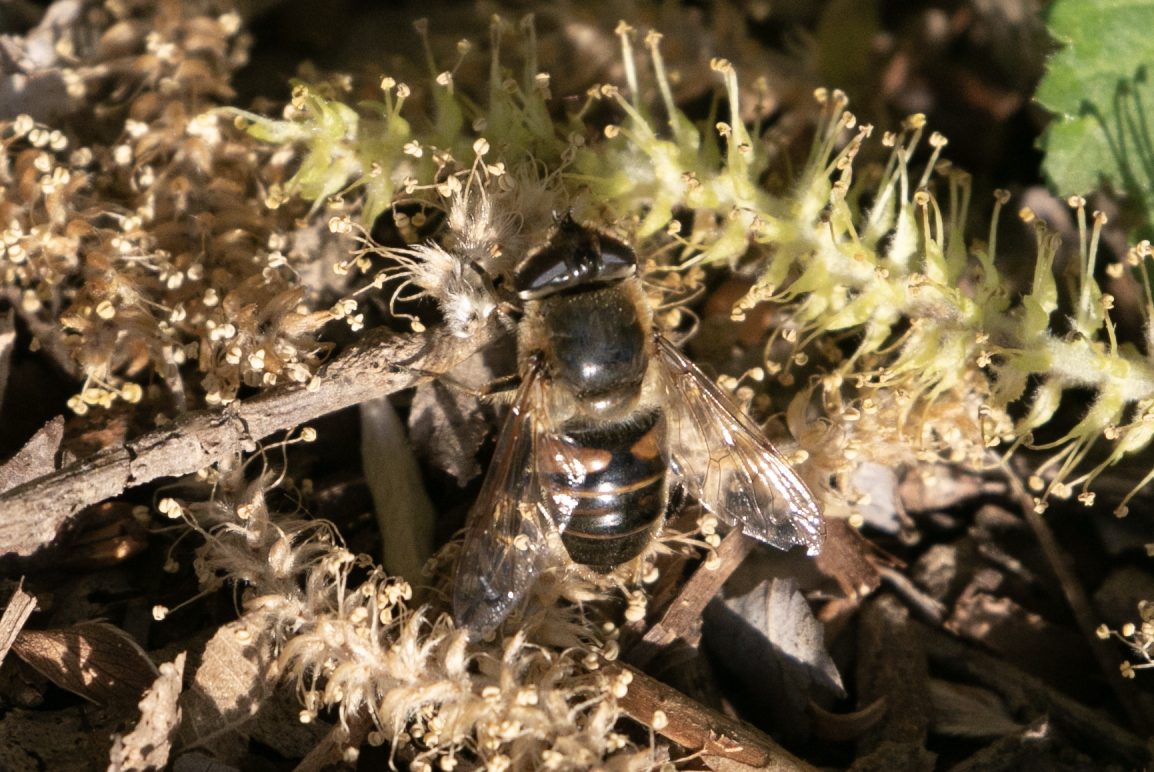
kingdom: Animalia
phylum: Arthropoda
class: Insecta
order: Diptera
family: Syrphidae
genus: Eristalis
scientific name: Eristalis tenax
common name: Drone fly
